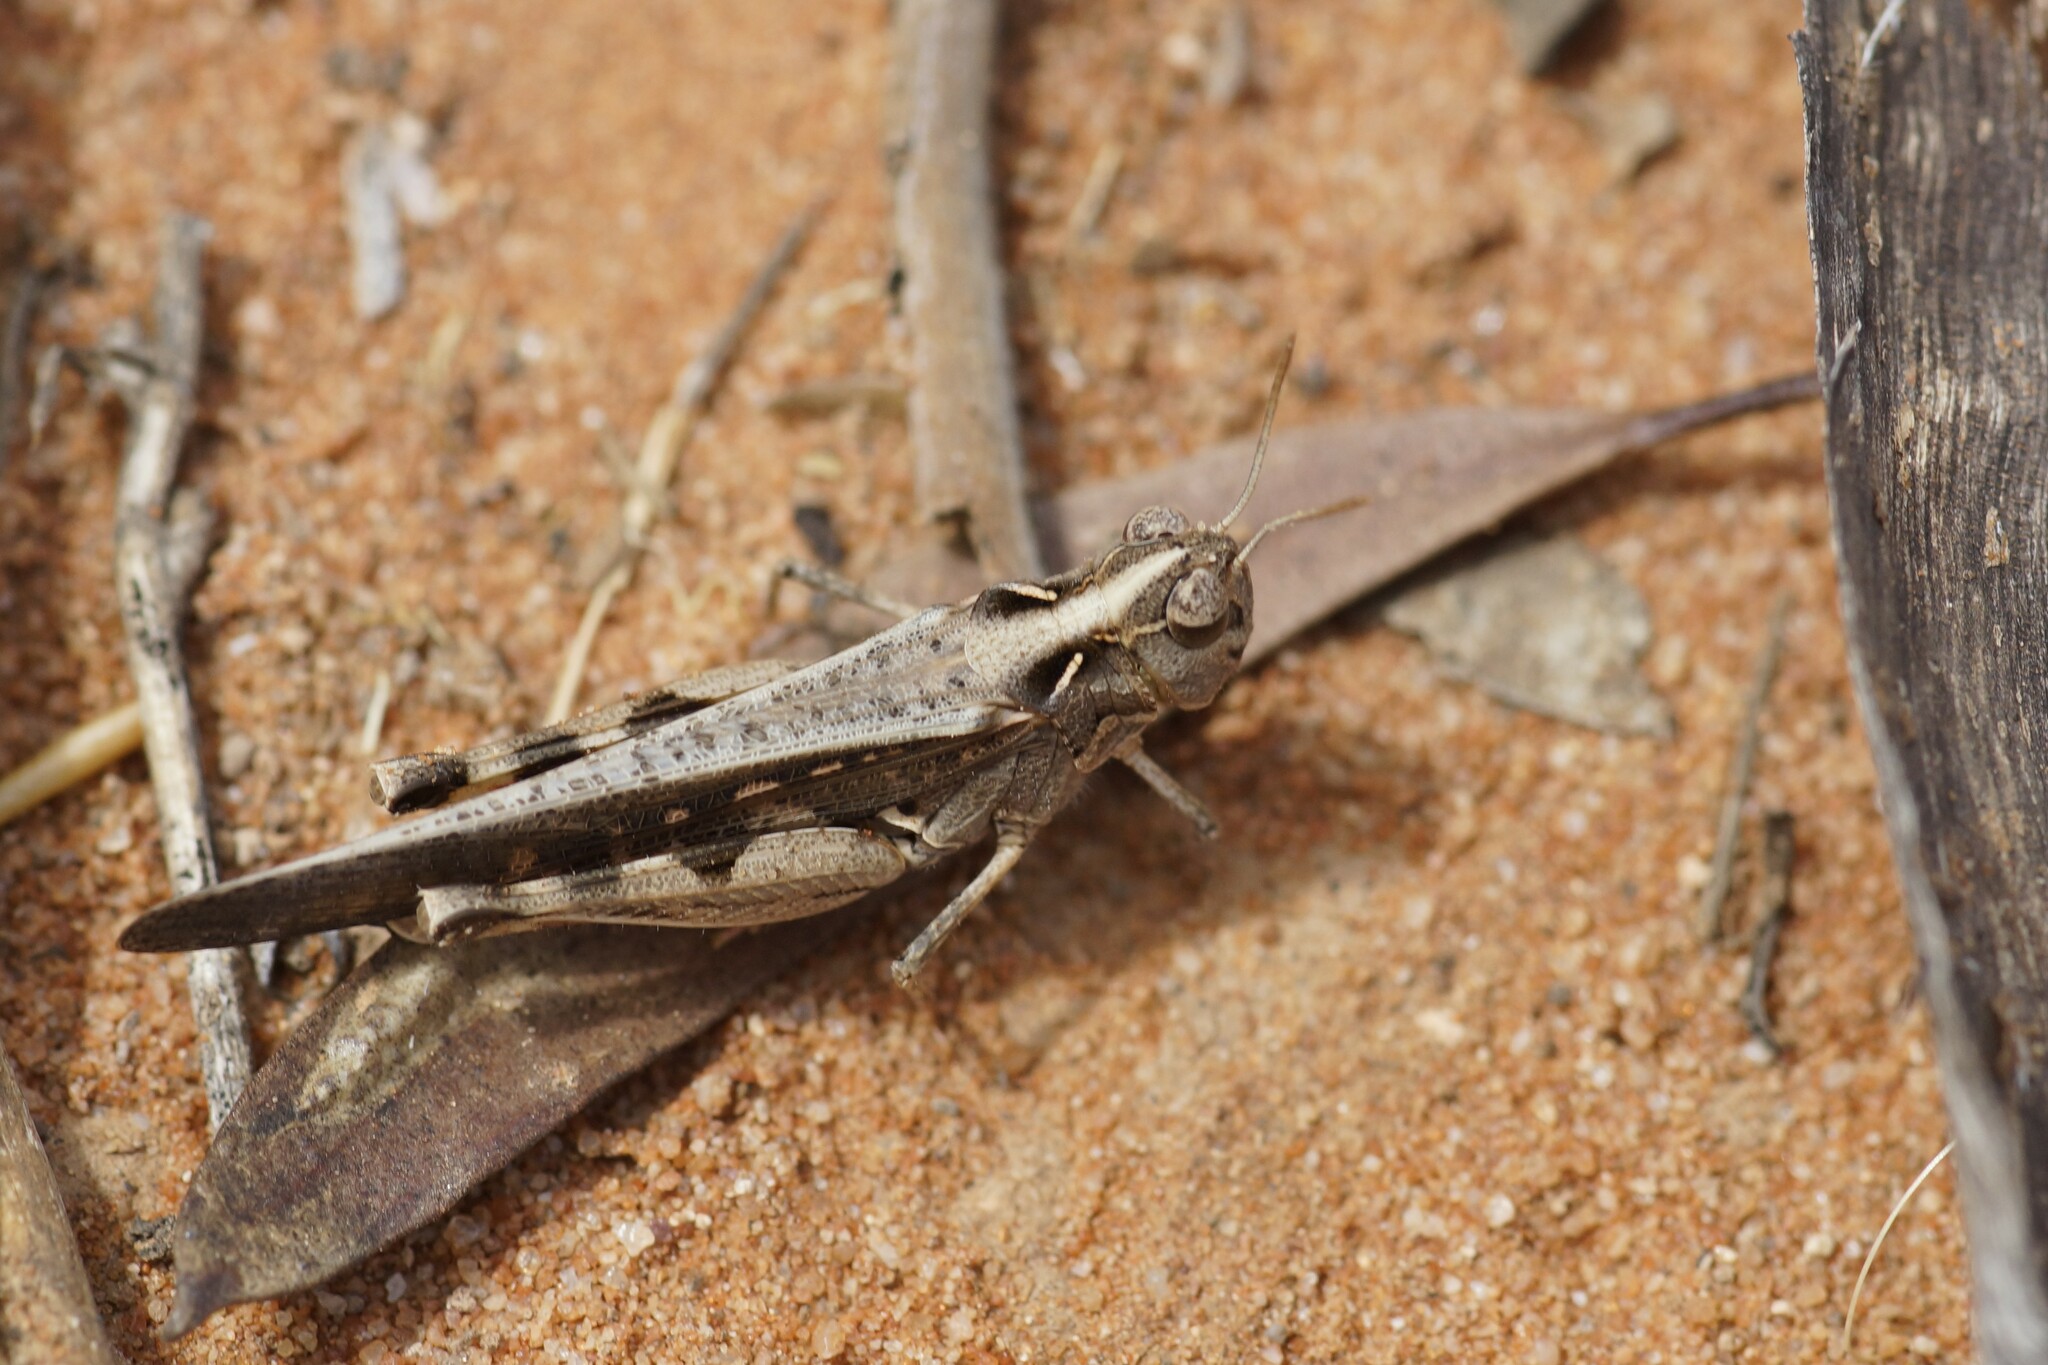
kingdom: Animalia
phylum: Arthropoda
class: Insecta
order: Orthoptera
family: Acrididae
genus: Austroicetes
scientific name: Austroicetes frater
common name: Southern austroicetes
